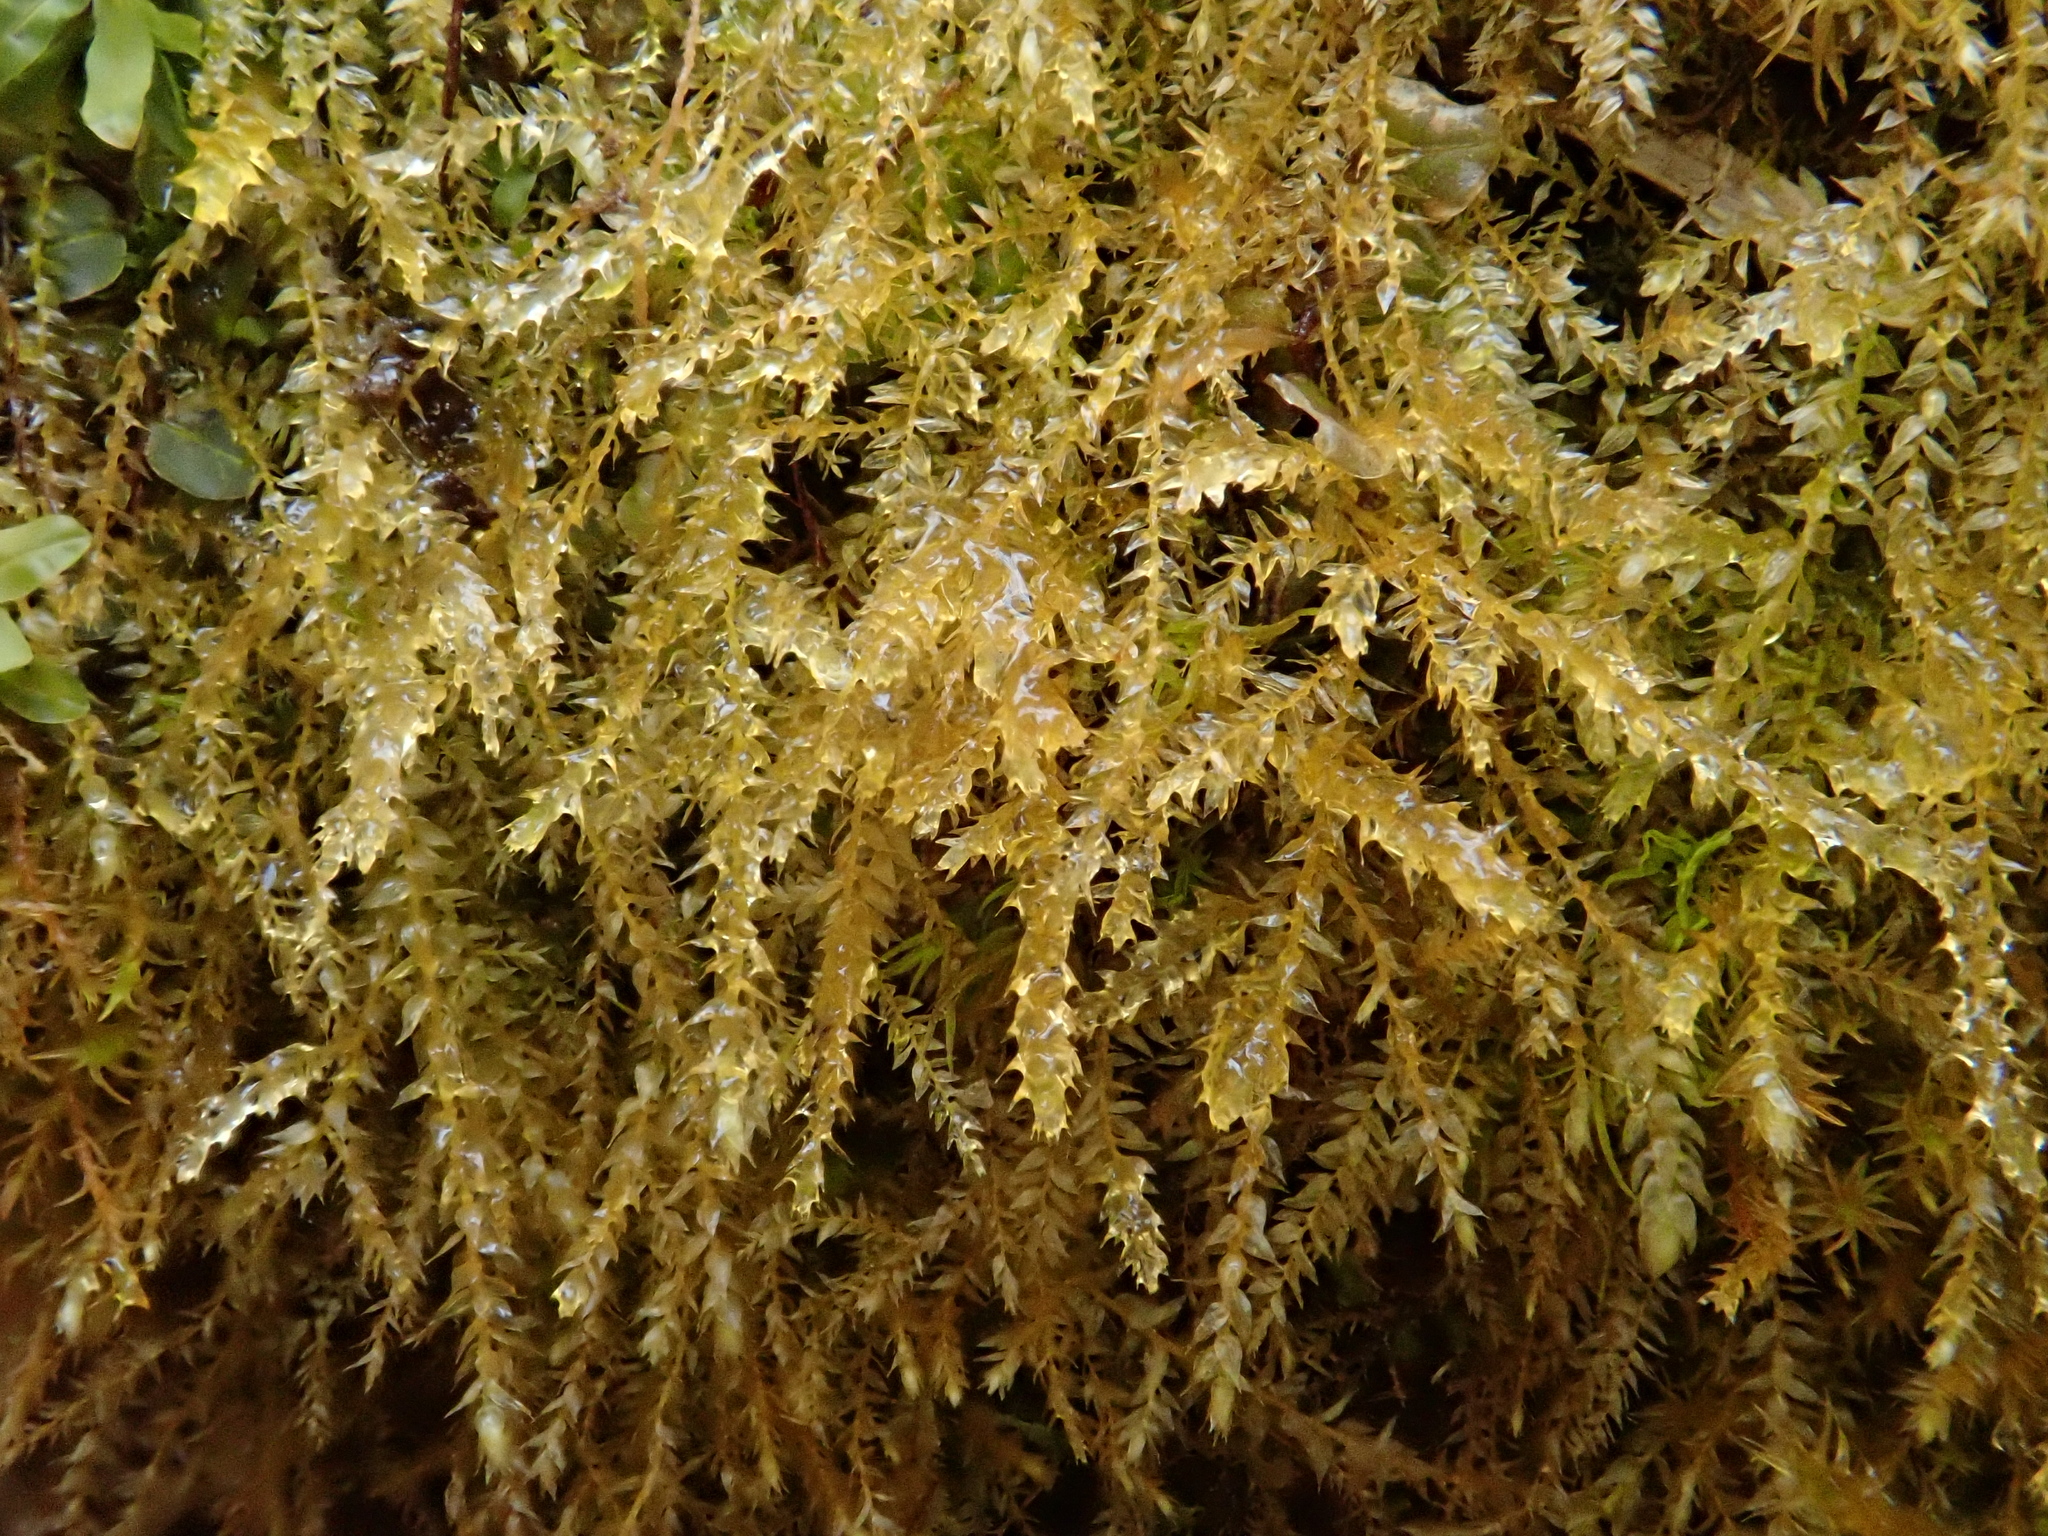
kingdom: Plantae
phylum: Bryophyta
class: Bryopsida
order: Hypnales
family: Brachytheciaceae
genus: Oxyrrhynchium
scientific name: Oxyrrhynchium hians
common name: Spreading beaked moss
